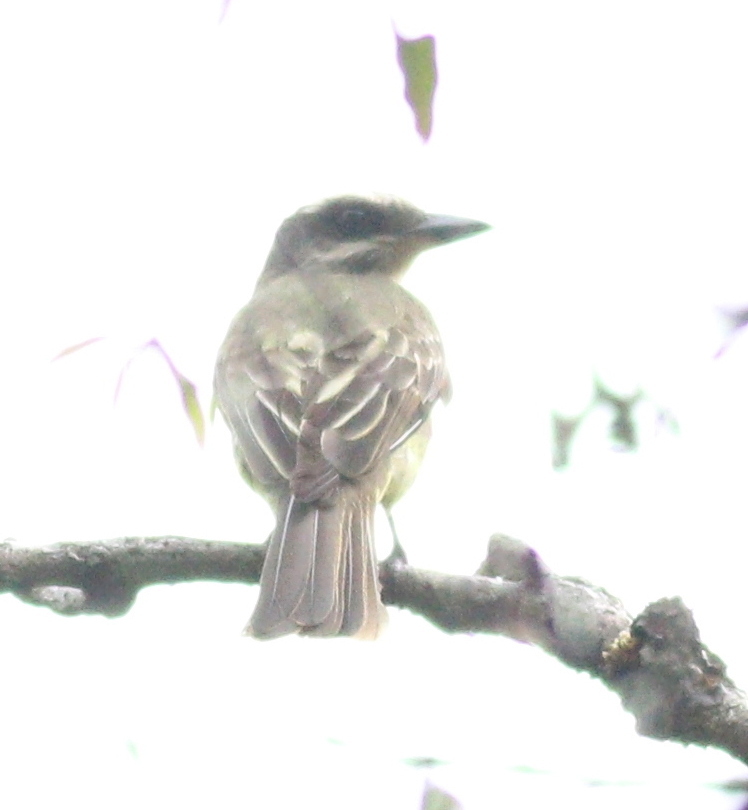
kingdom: Animalia
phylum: Chordata
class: Aves
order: Passeriformes
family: Tyrannidae
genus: Myiodynastes
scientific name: Myiodynastes chrysocephalus
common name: Golden-crowned flycatcher
